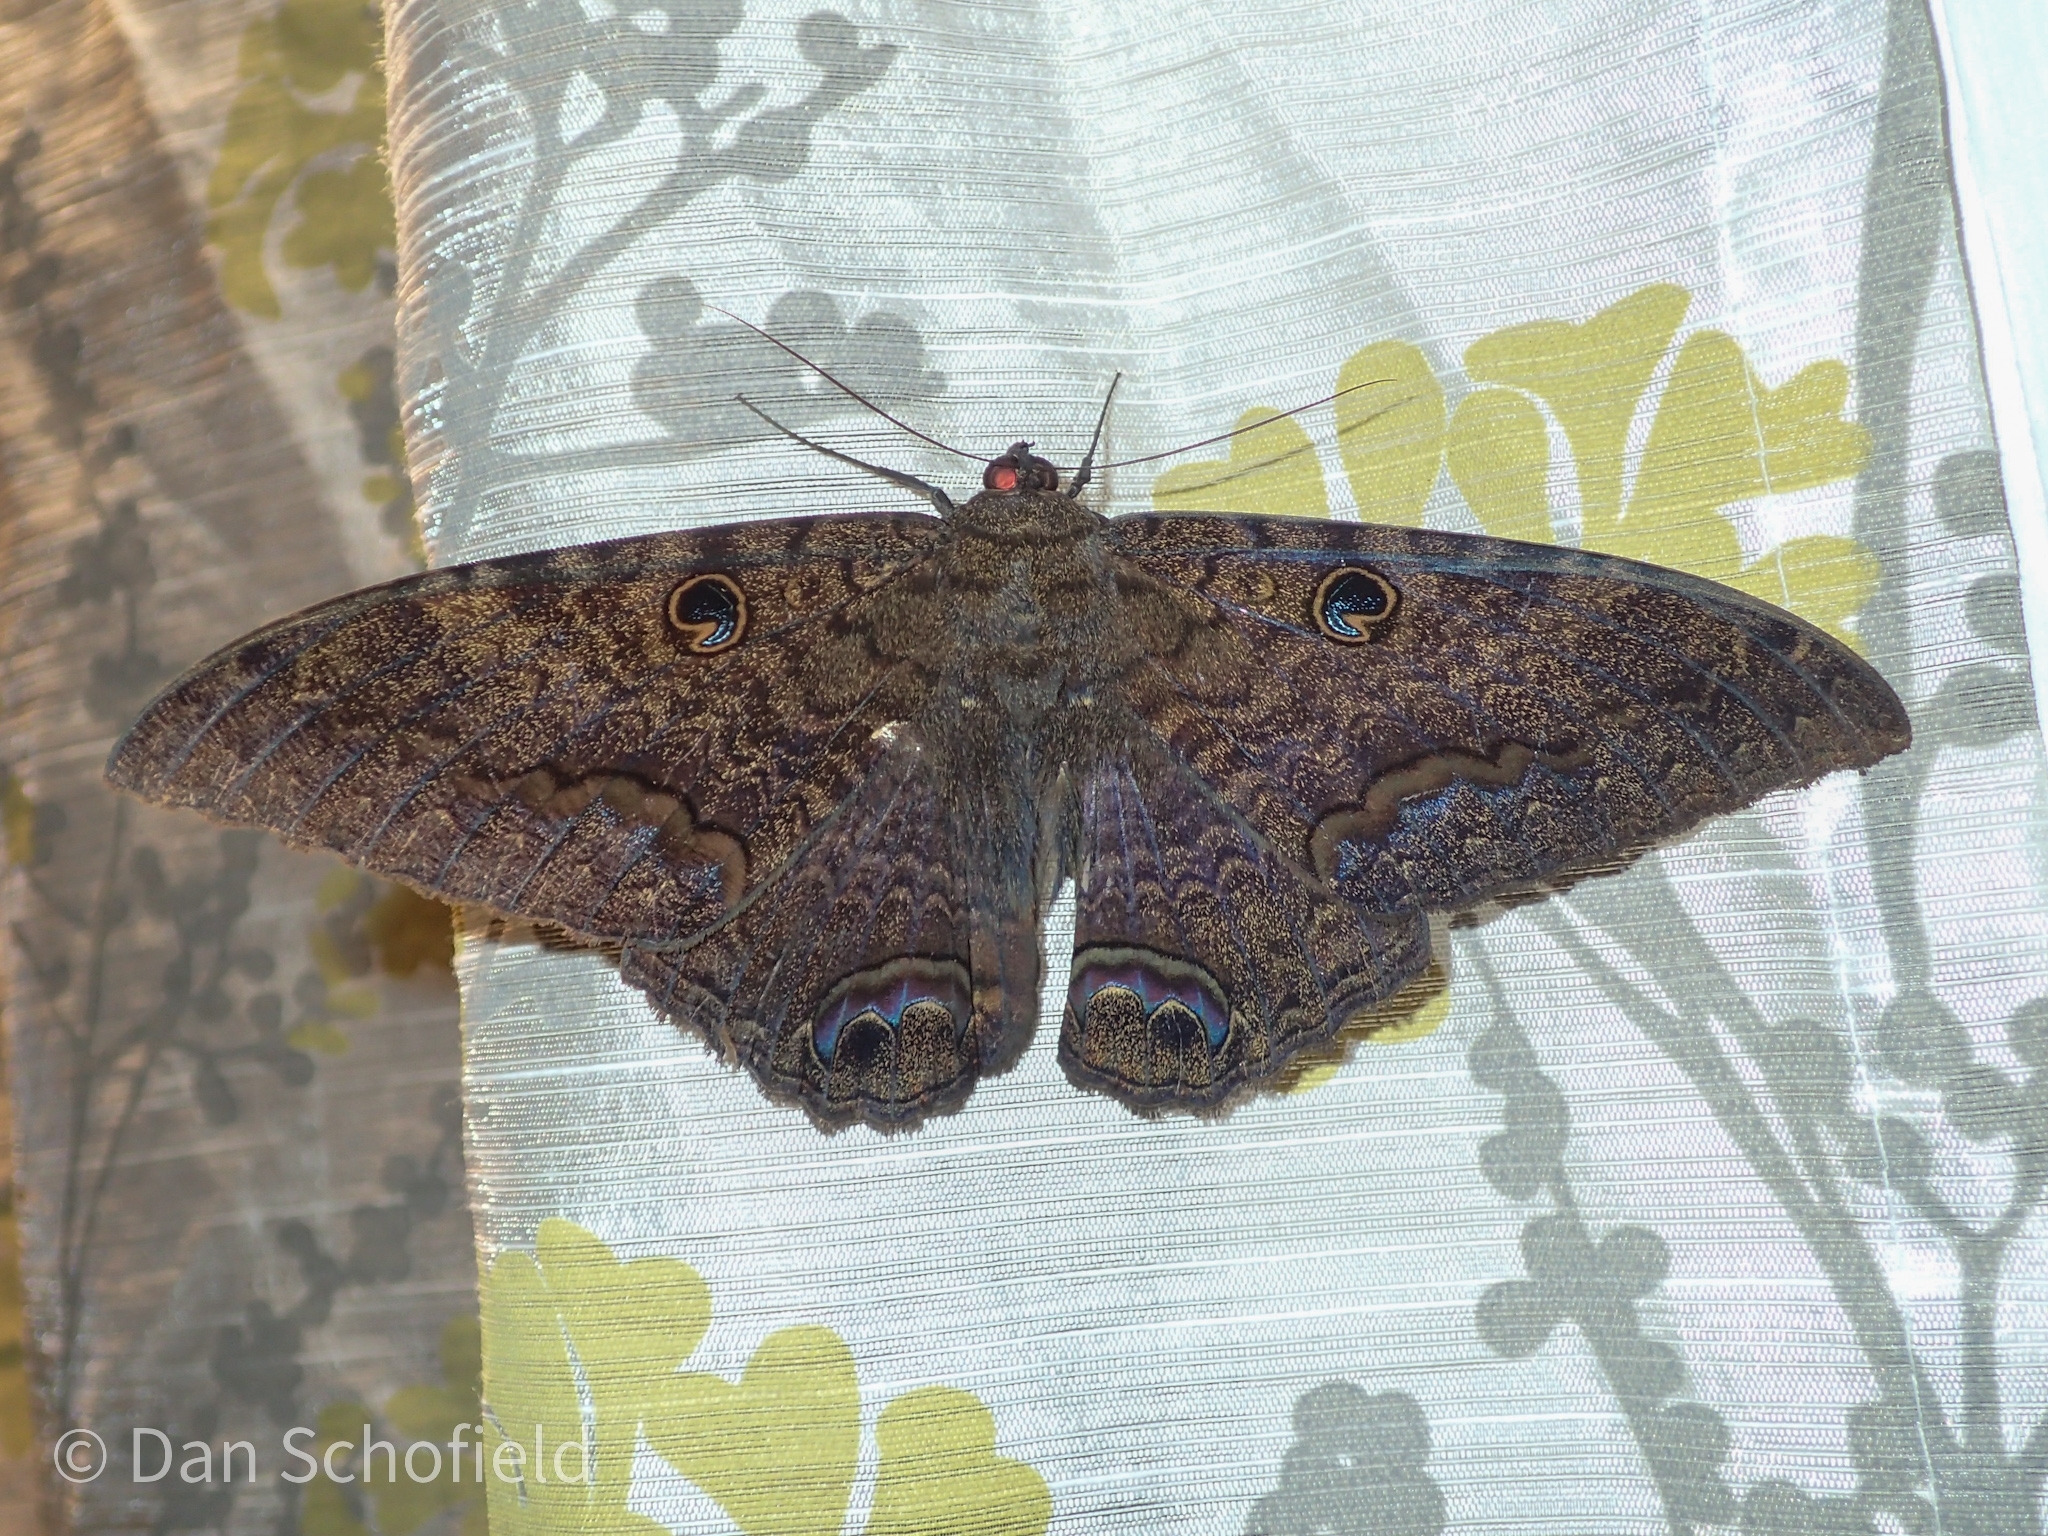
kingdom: Animalia
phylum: Arthropoda
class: Insecta
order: Lepidoptera
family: Erebidae
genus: Ascalapha
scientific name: Ascalapha odorata
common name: Black witch
